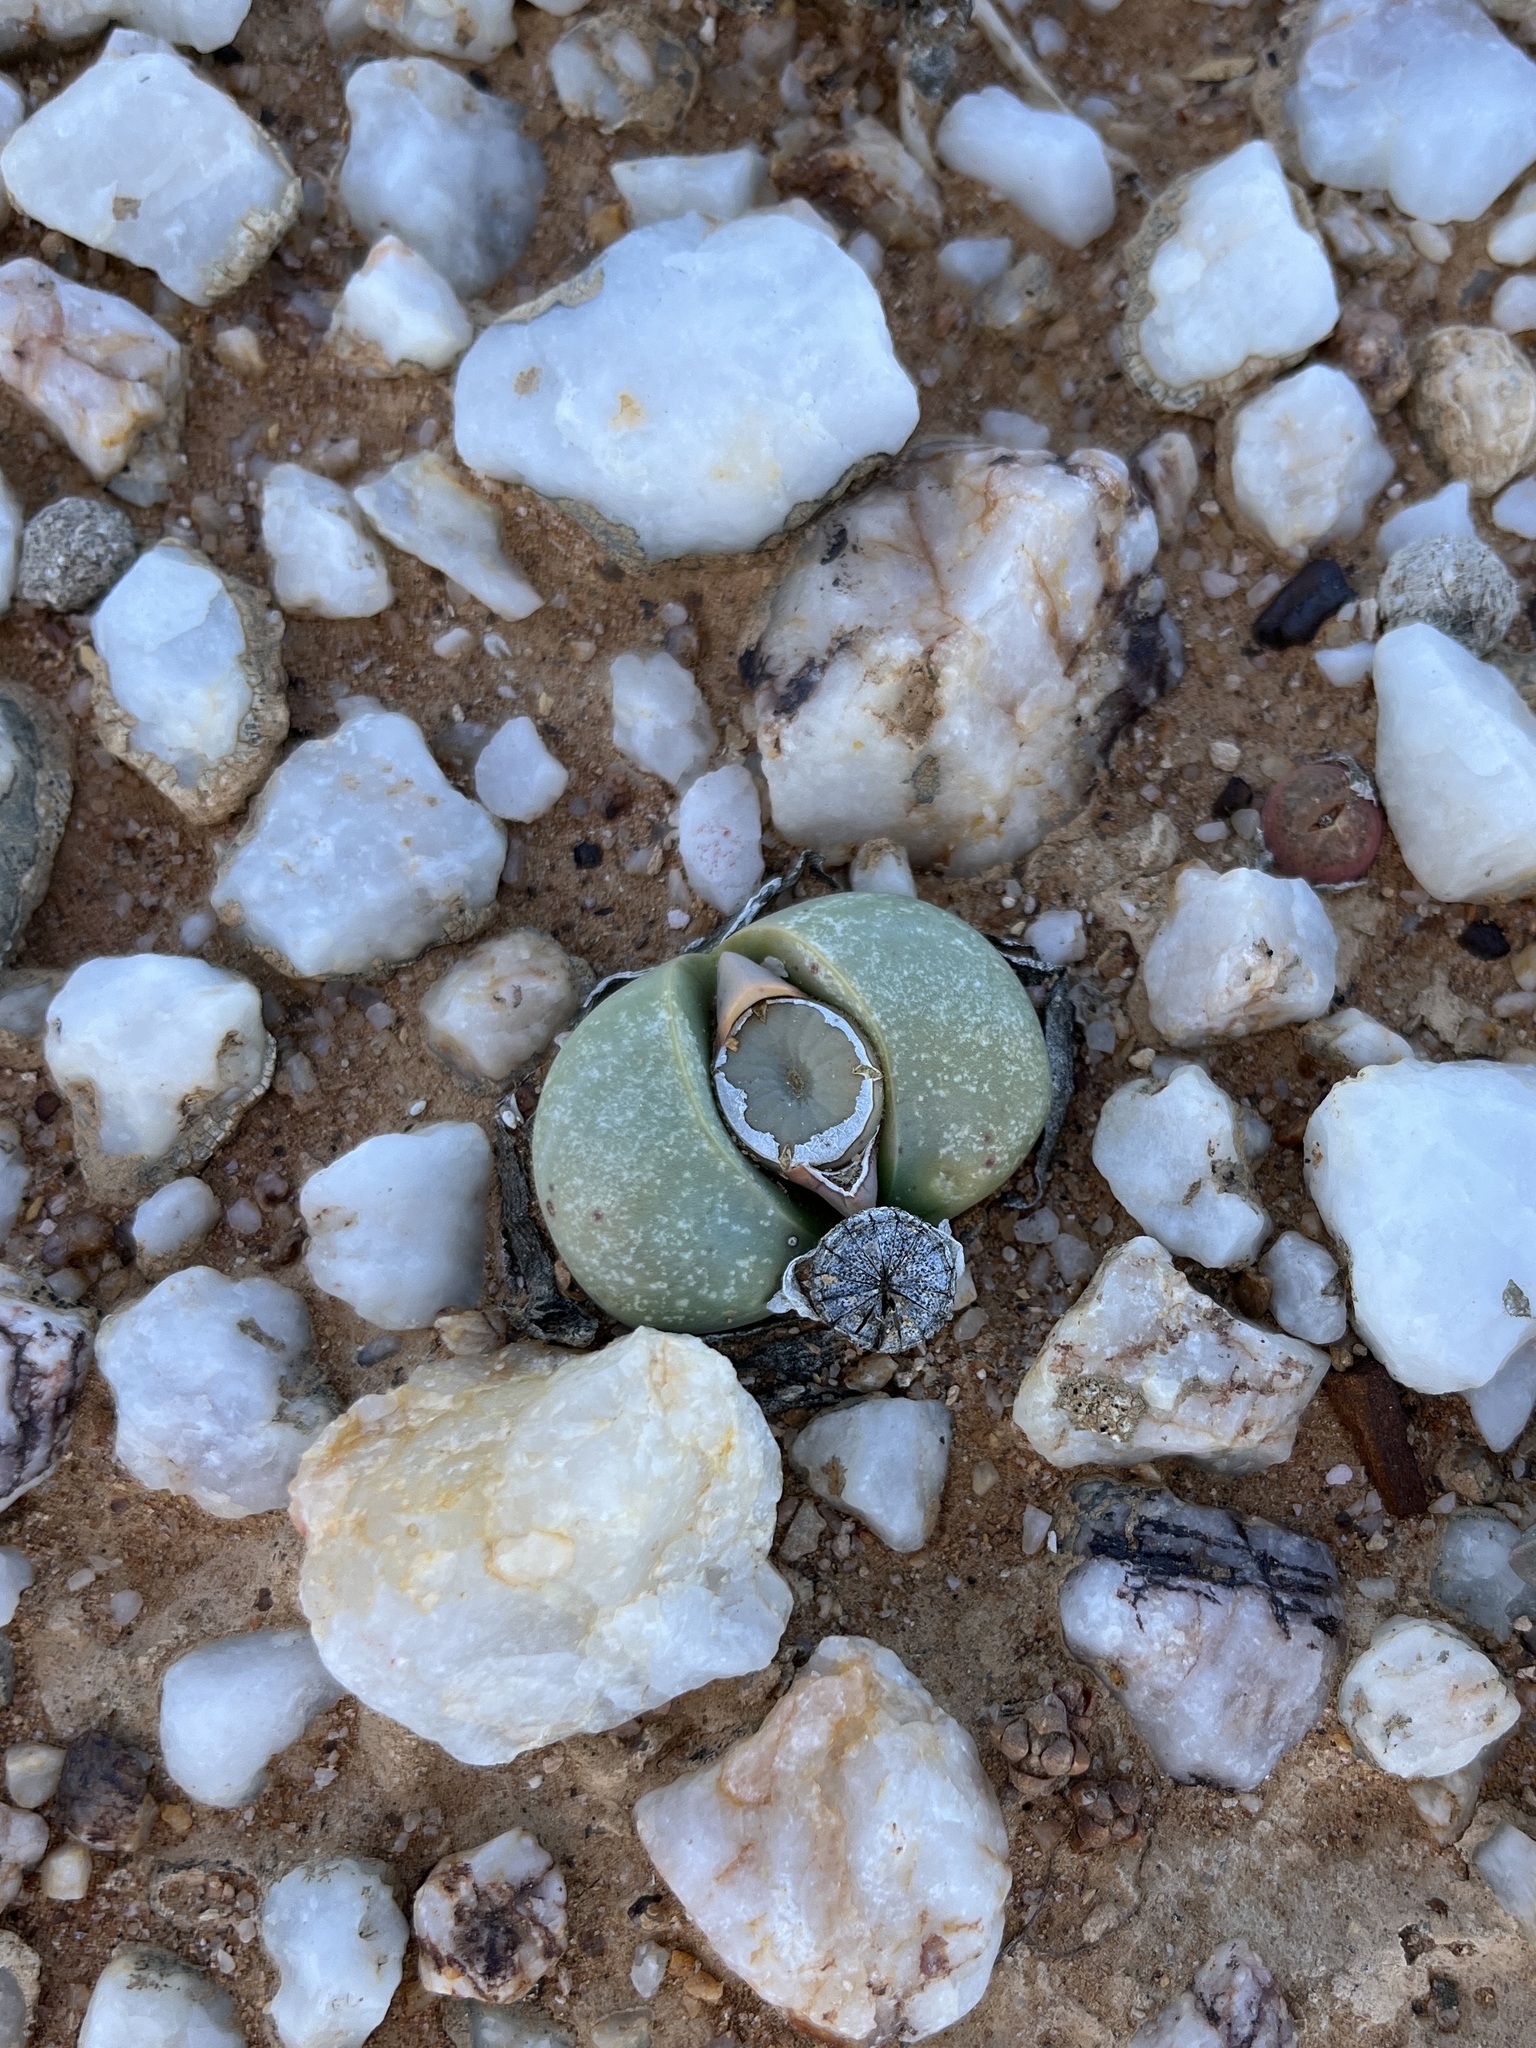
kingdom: Plantae
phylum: Tracheophyta
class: Magnoliopsida
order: Caryophyllales
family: Aizoaceae
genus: Argyroderma
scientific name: Argyroderma delaetii
